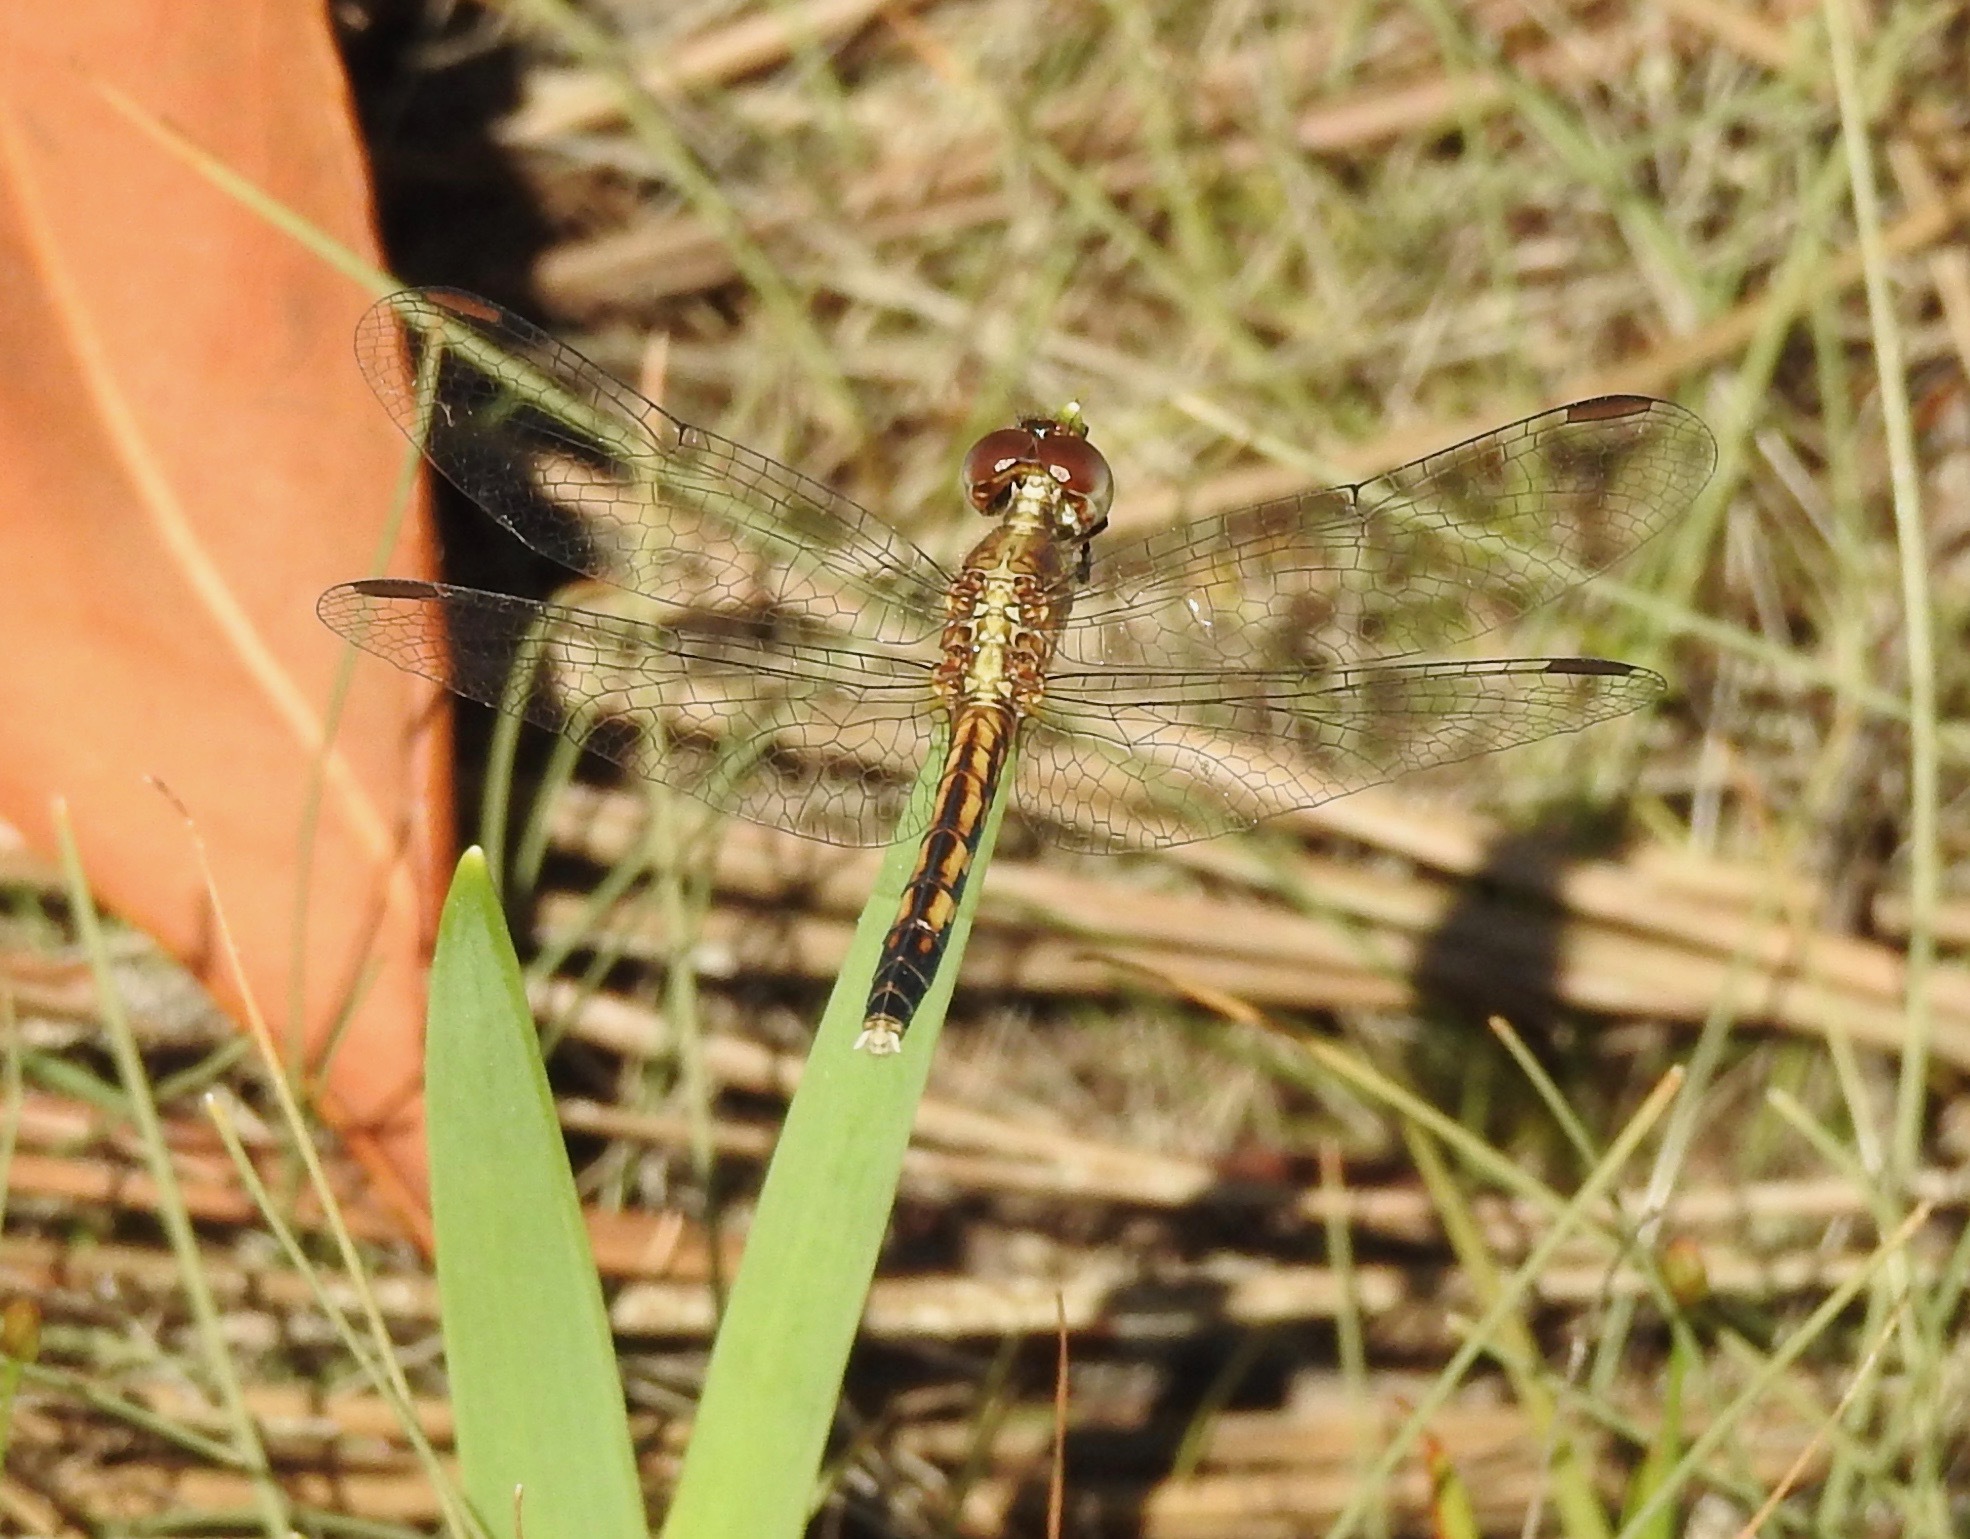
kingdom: Animalia
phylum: Arthropoda
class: Insecta
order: Odonata
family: Libellulidae
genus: Erythrodiplax
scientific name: Erythrodiplax minuscula
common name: Little blue dragonlet
